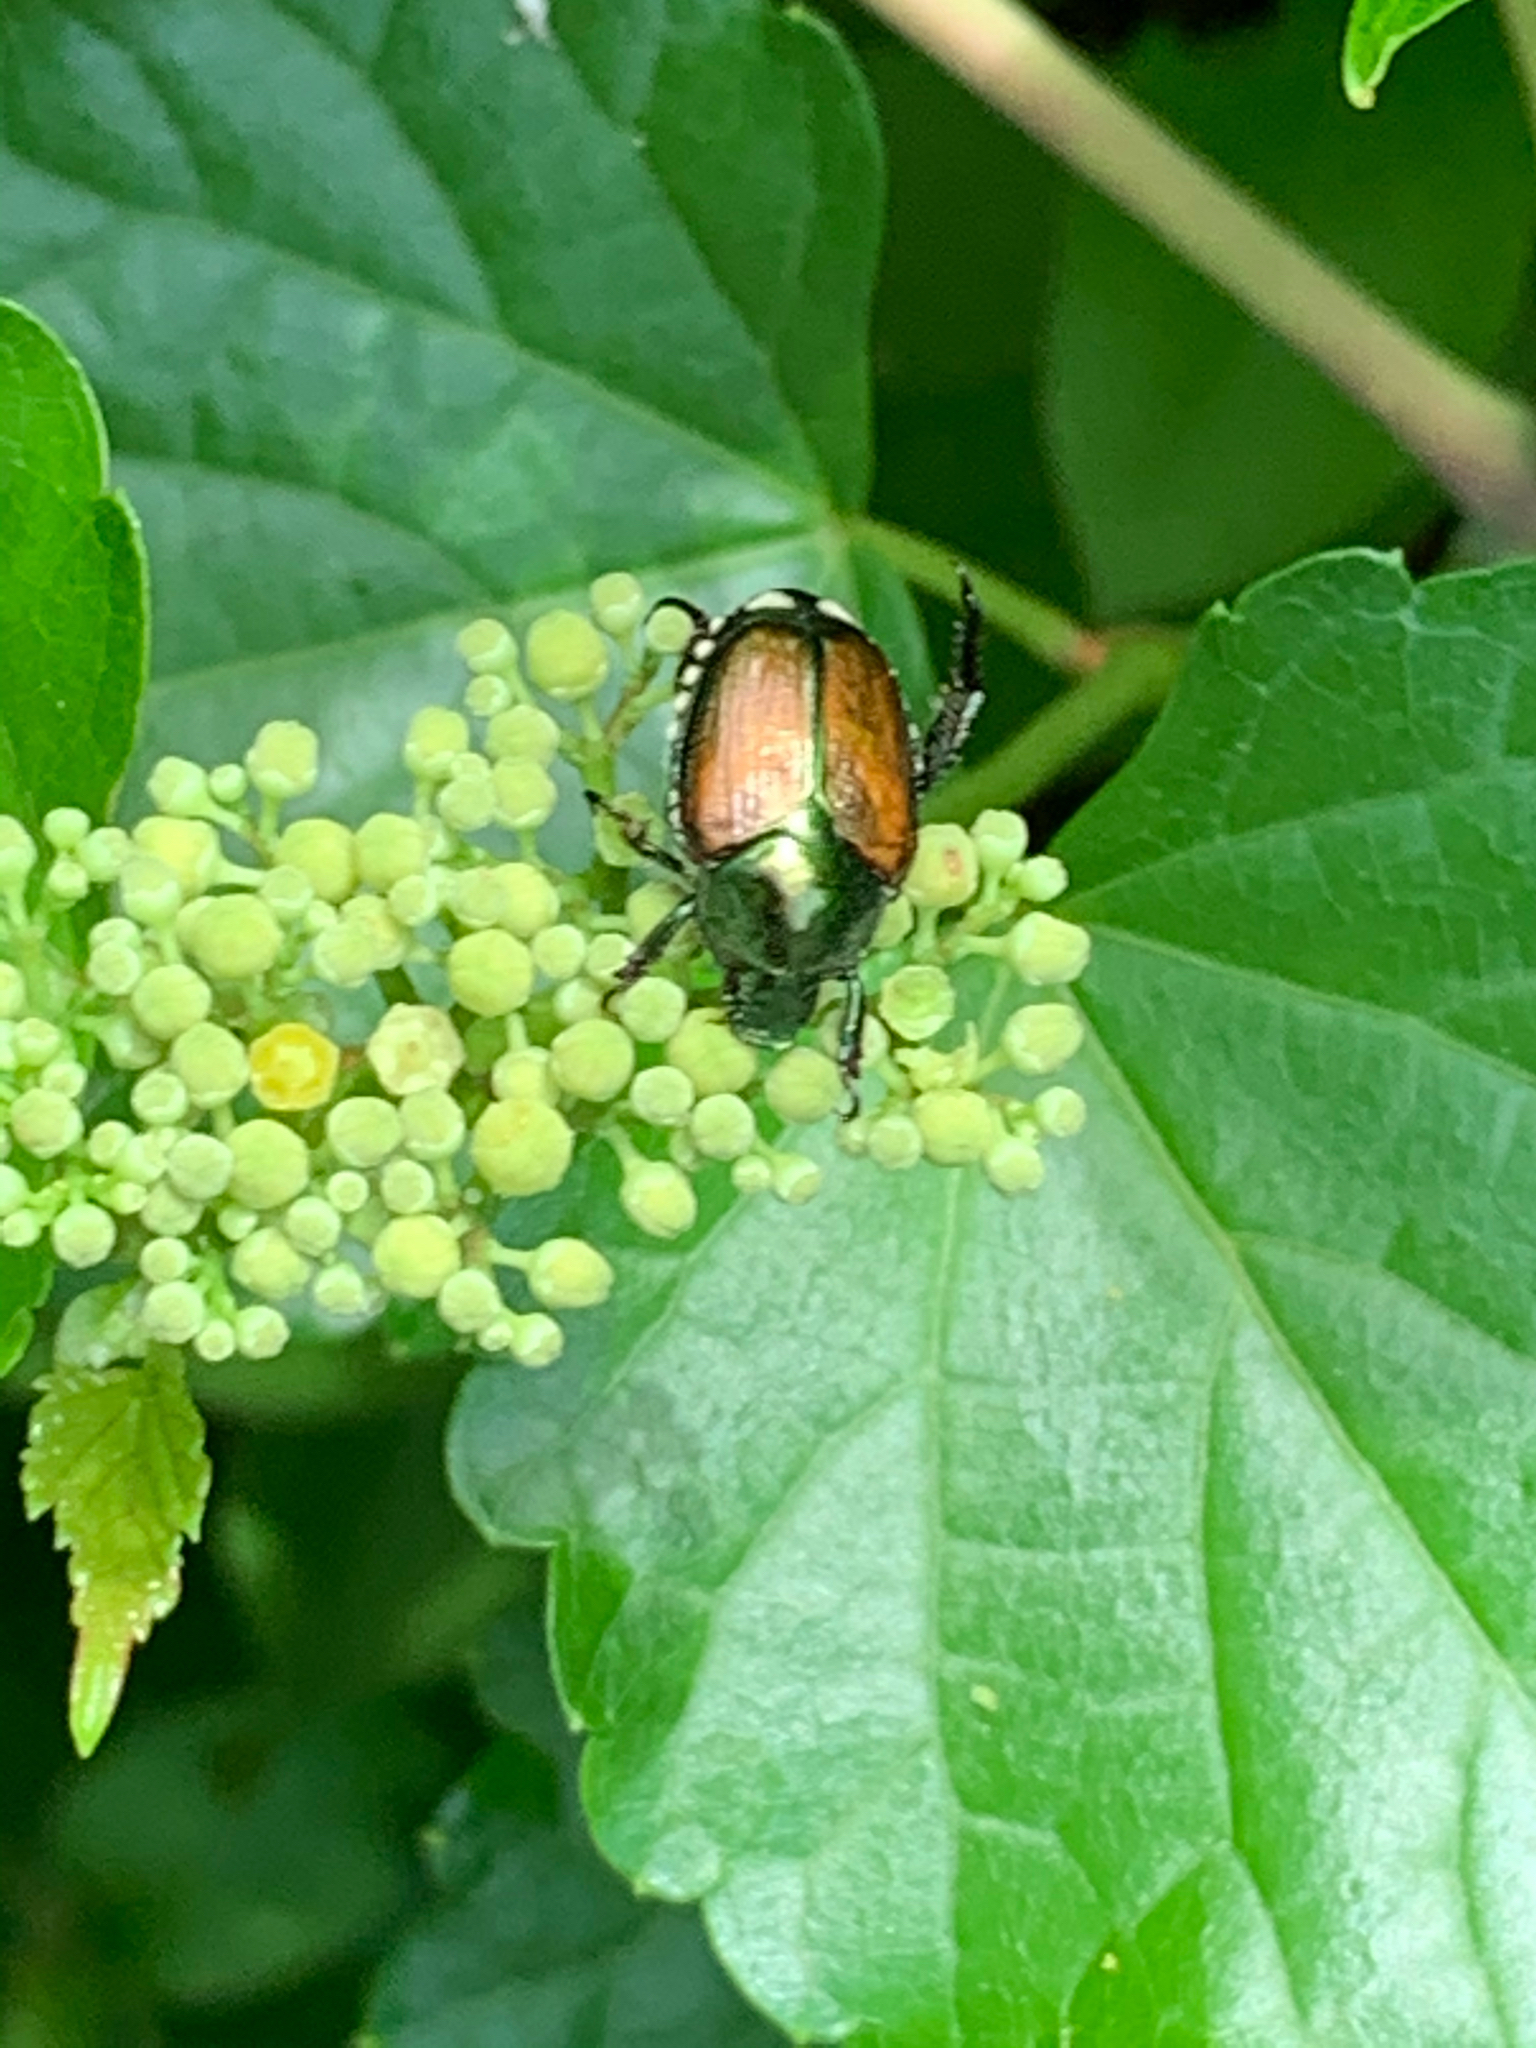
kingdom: Animalia
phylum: Arthropoda
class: Insecta
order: Coleoptera
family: Scarabaeidae
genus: Popillia
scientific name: Popillia japonica
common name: Japanese beetle
